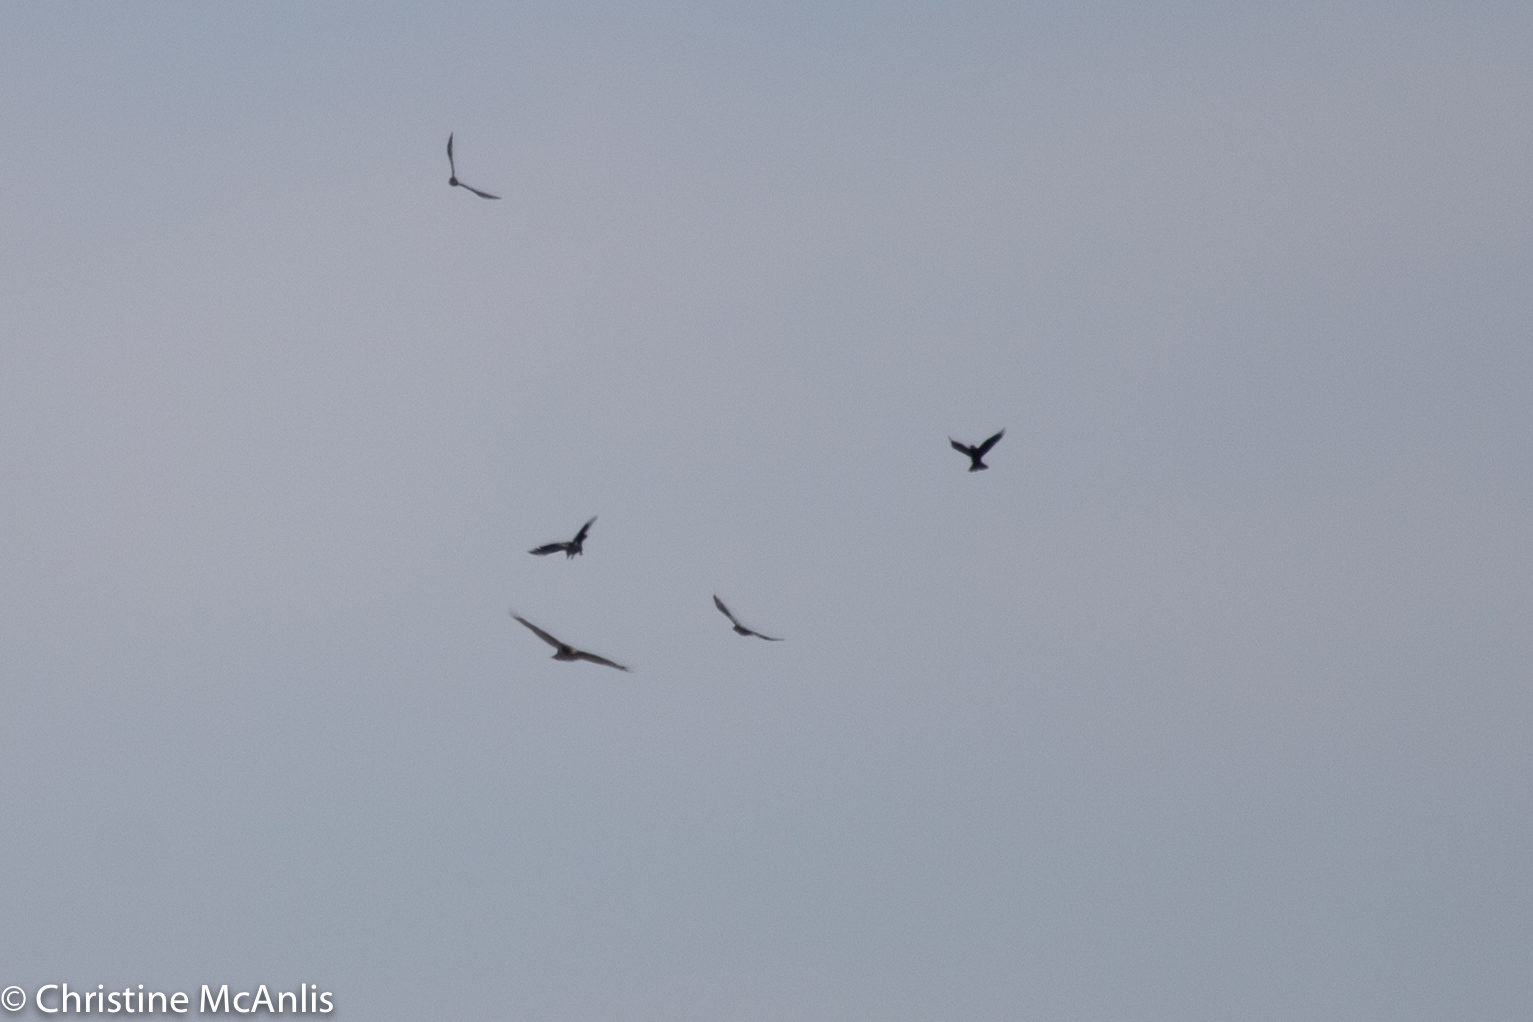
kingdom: Animalia
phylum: Chordata
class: Aves
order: Accipitriformes
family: Accipitridae
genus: Haliaeetus
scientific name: Haliaeetus leucocephalus
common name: Bald eagle
